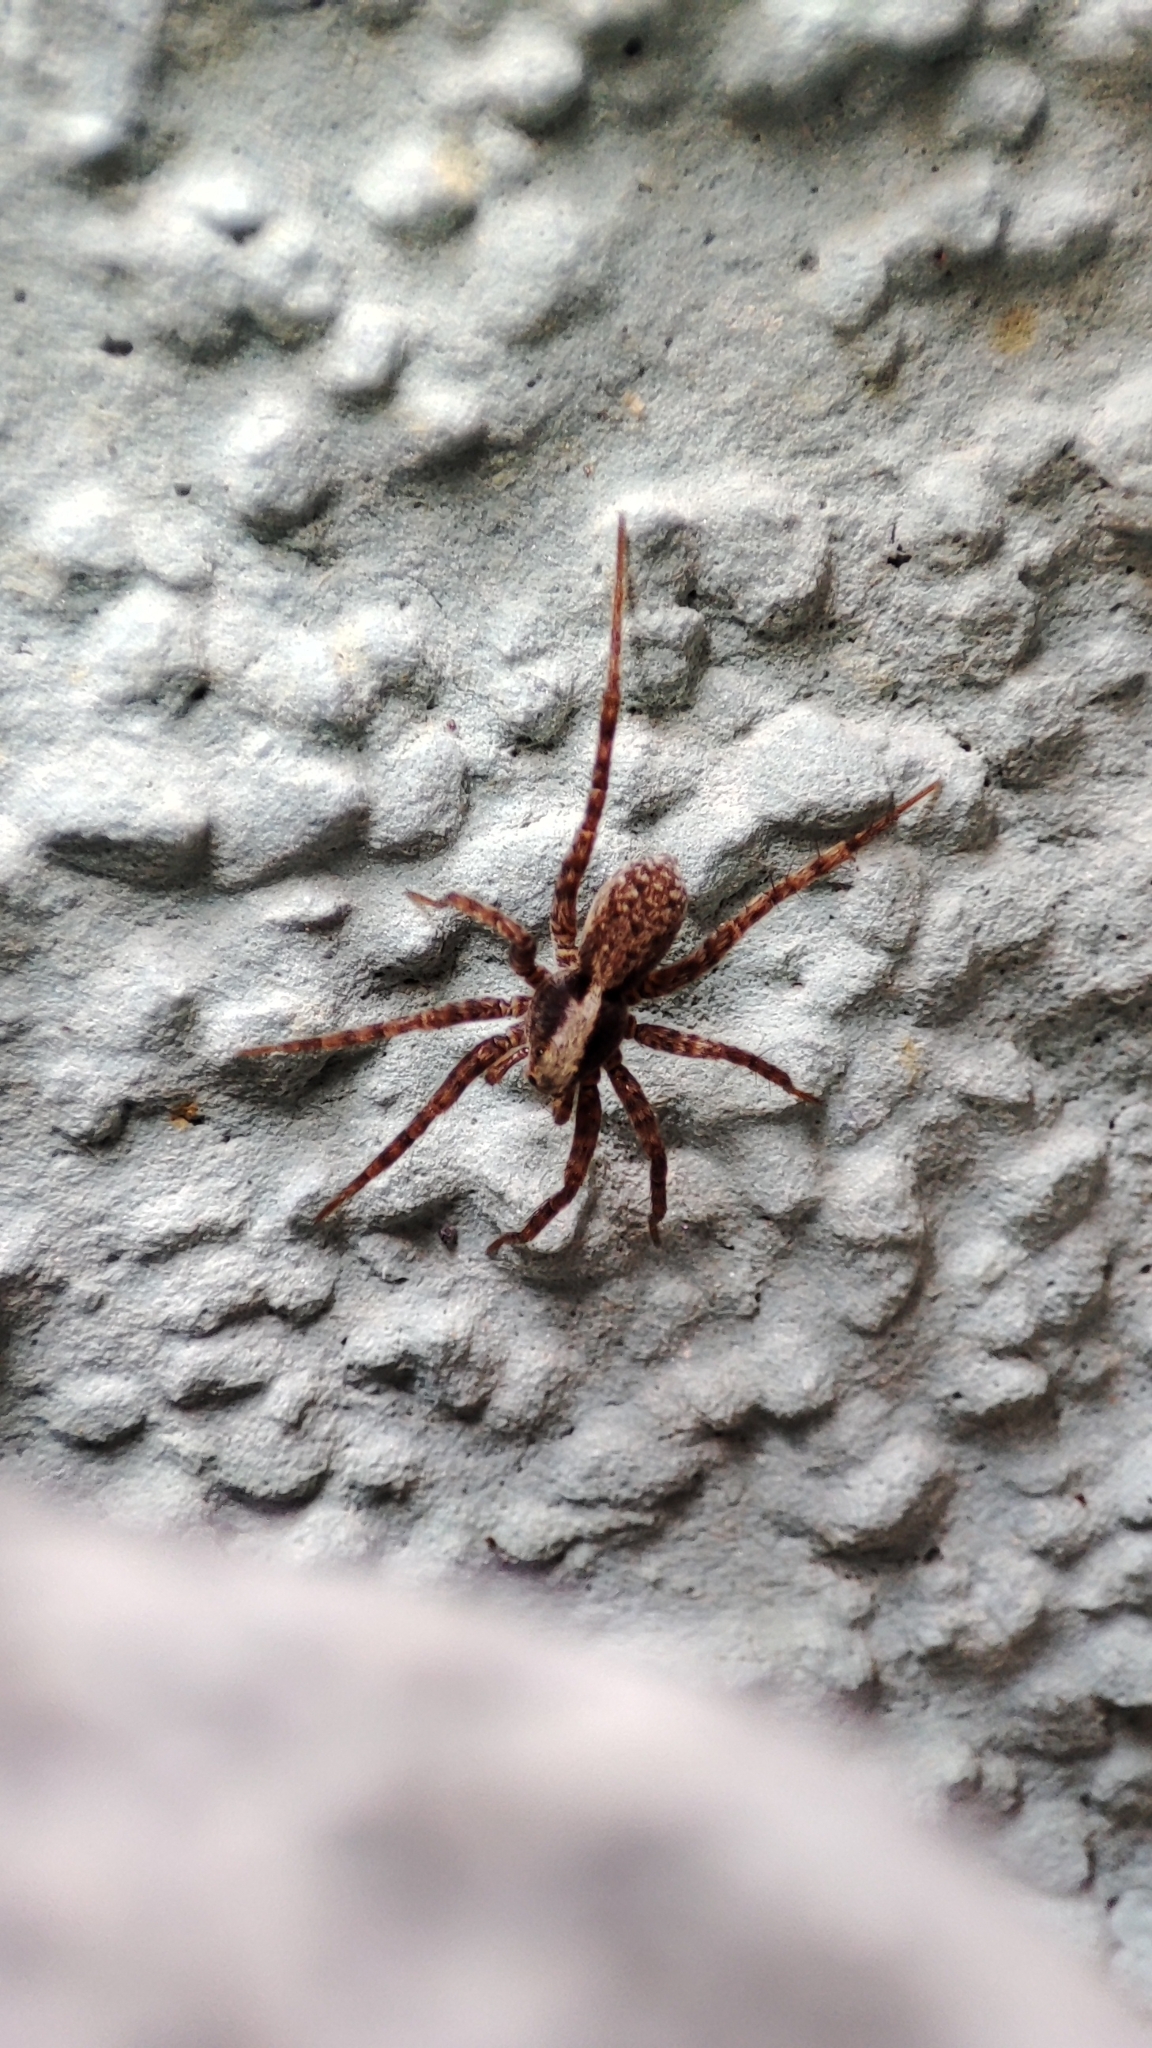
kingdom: Animalia
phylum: Arthropoda
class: Arachnida
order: Araneae
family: Lycosidae
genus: Pardosa
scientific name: Pardosa
